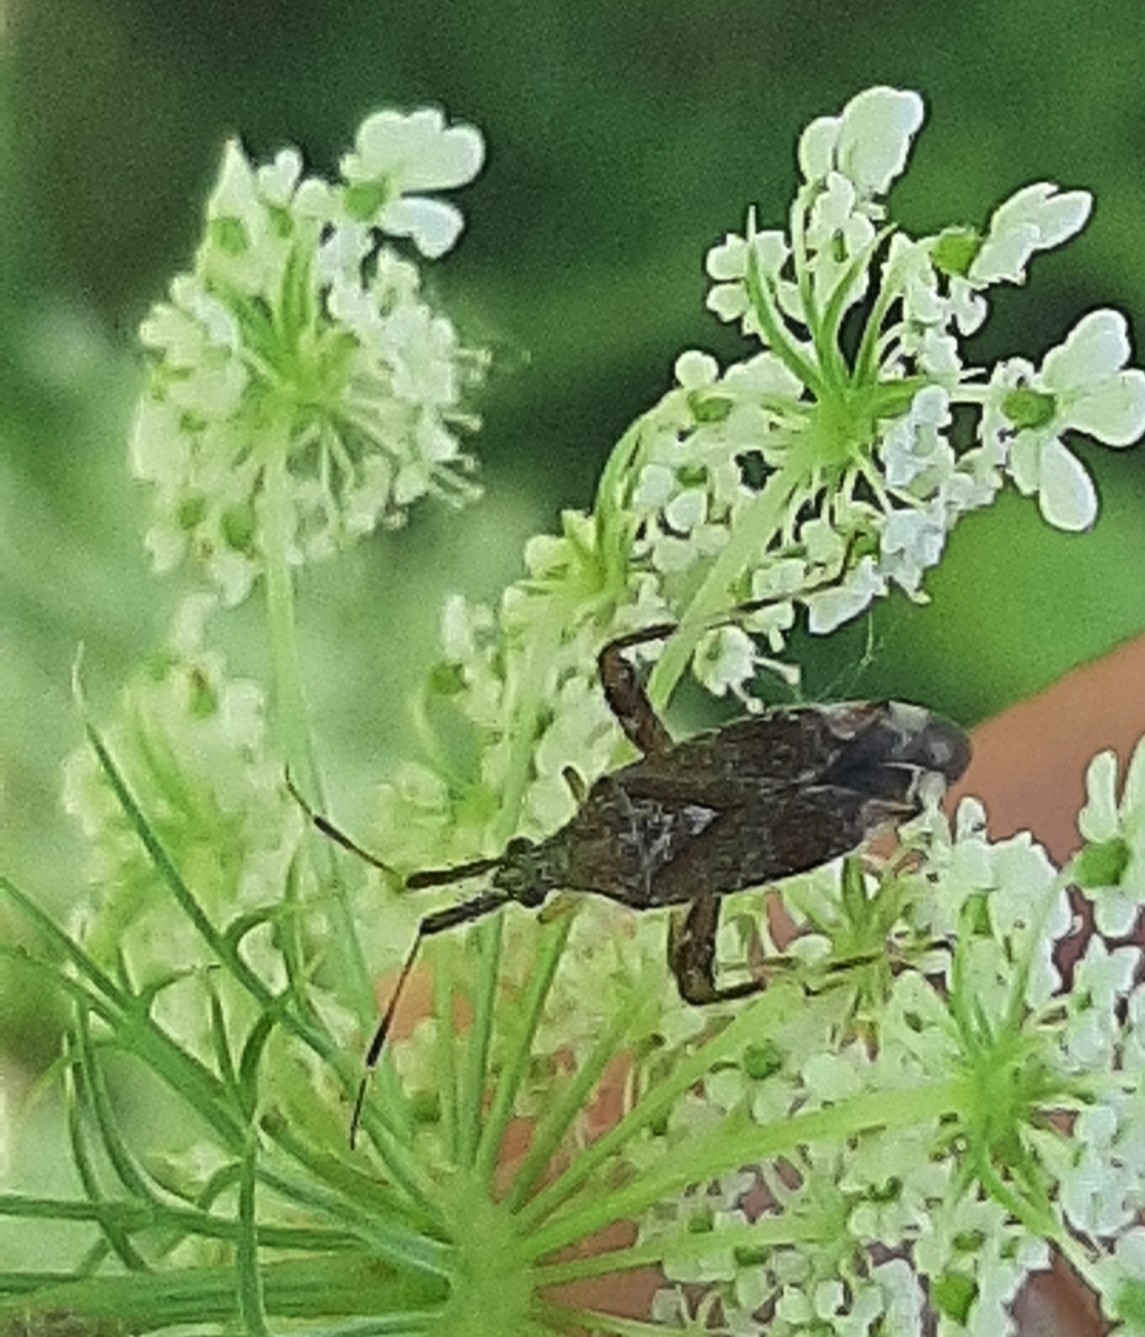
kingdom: Animalia
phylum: Arthropoda
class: Insecta
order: Hemiptera
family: Miridae
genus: Neurocolpus
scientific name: Neurocolpus nubilus
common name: Clouded plant bug
